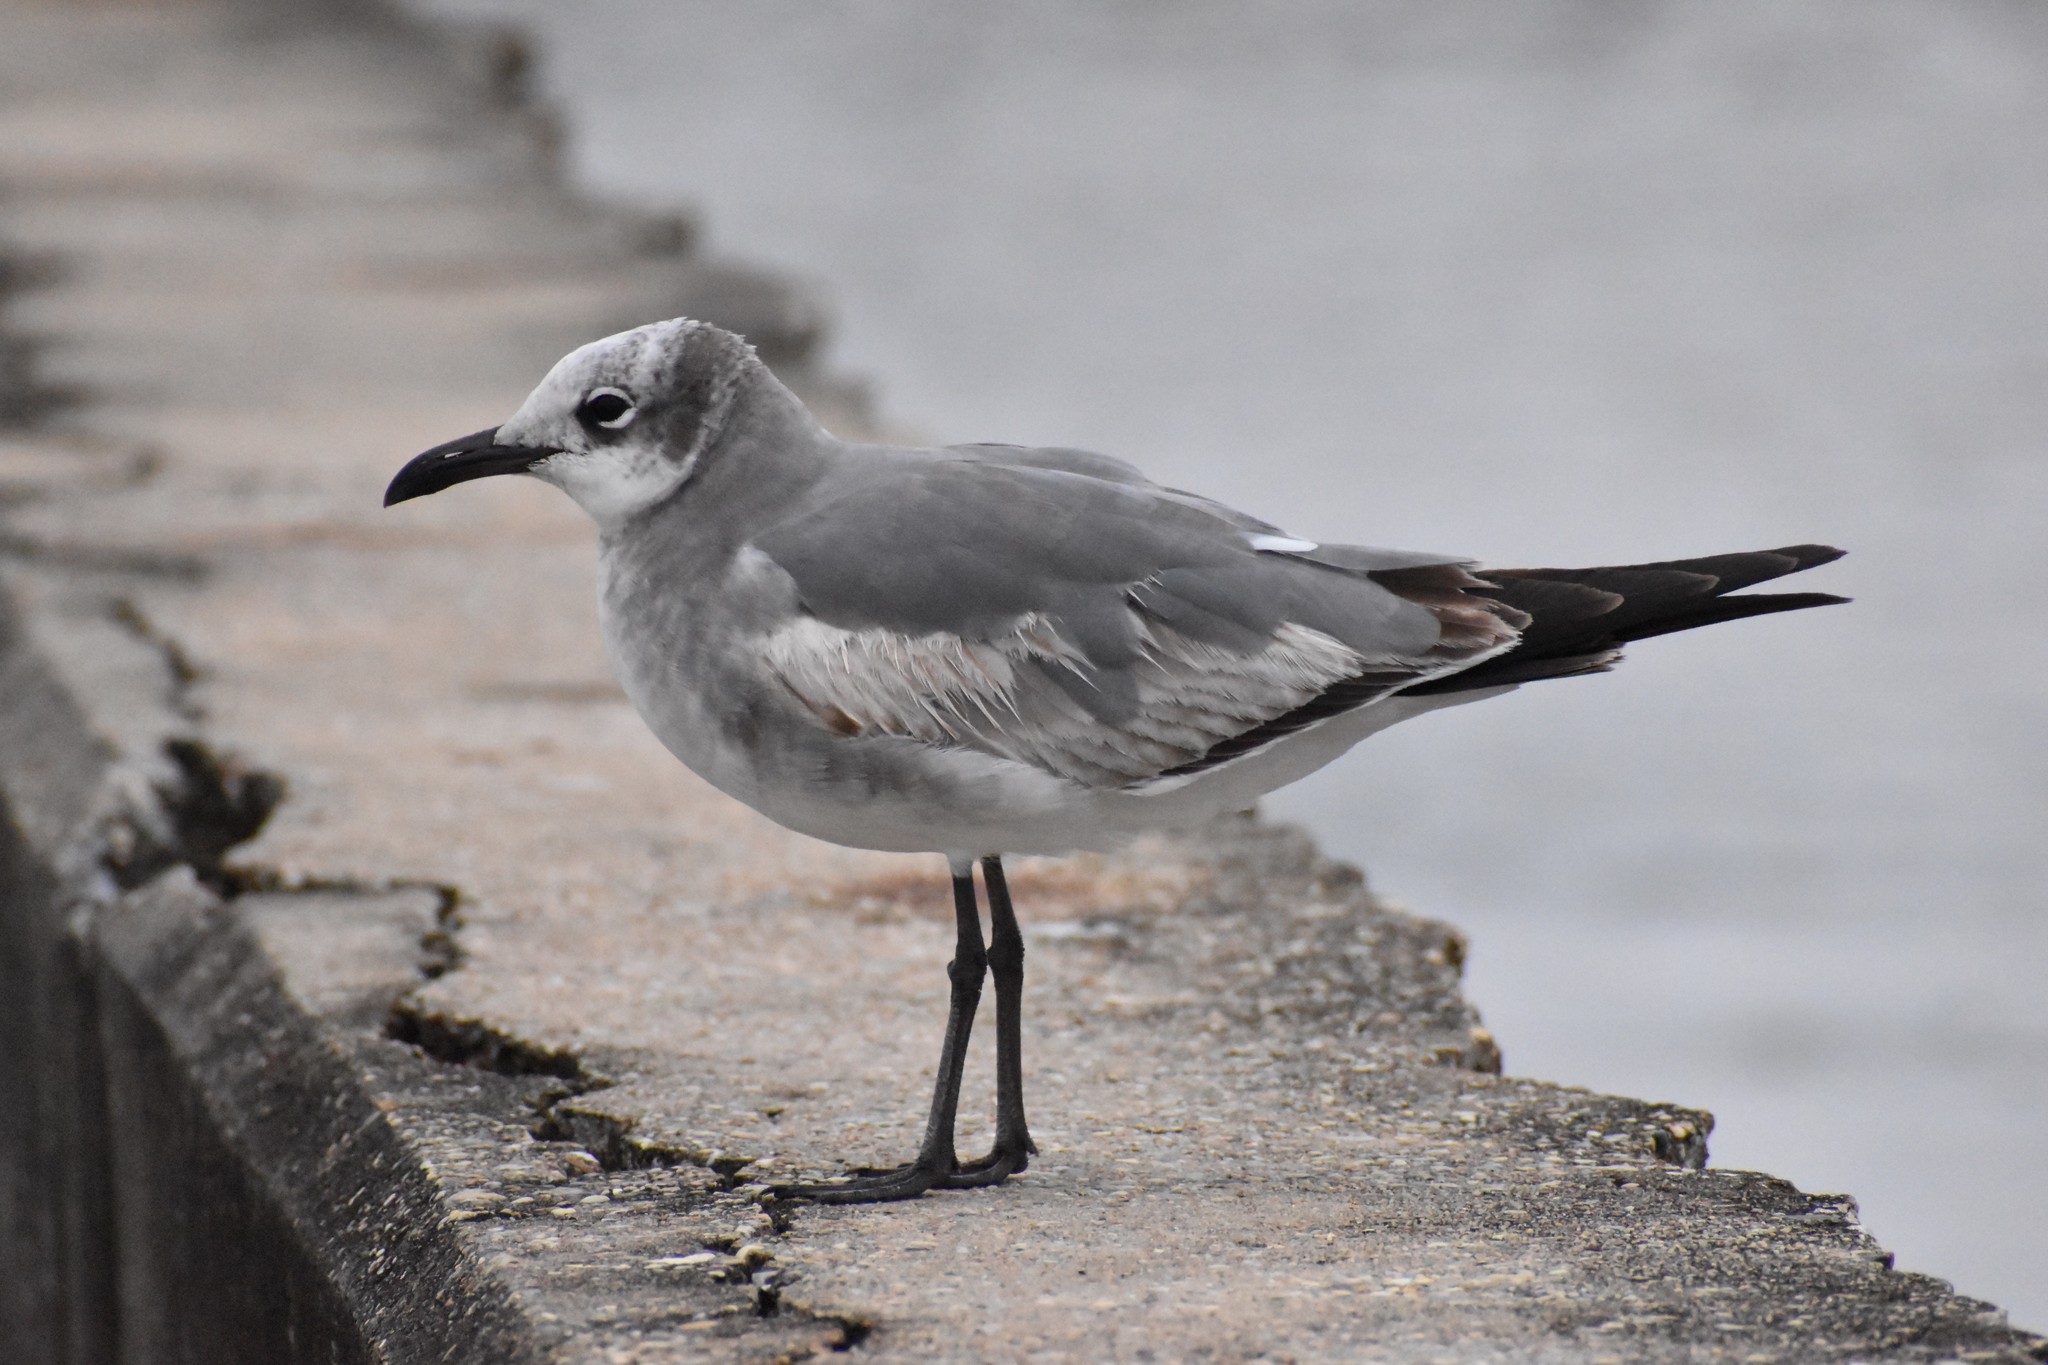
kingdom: Animalia
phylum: Chordata
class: Aves
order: Charadriiformes
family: Laridae
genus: Leucophaeus
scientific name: Leucophaeus atricilla
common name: Laughing gull
